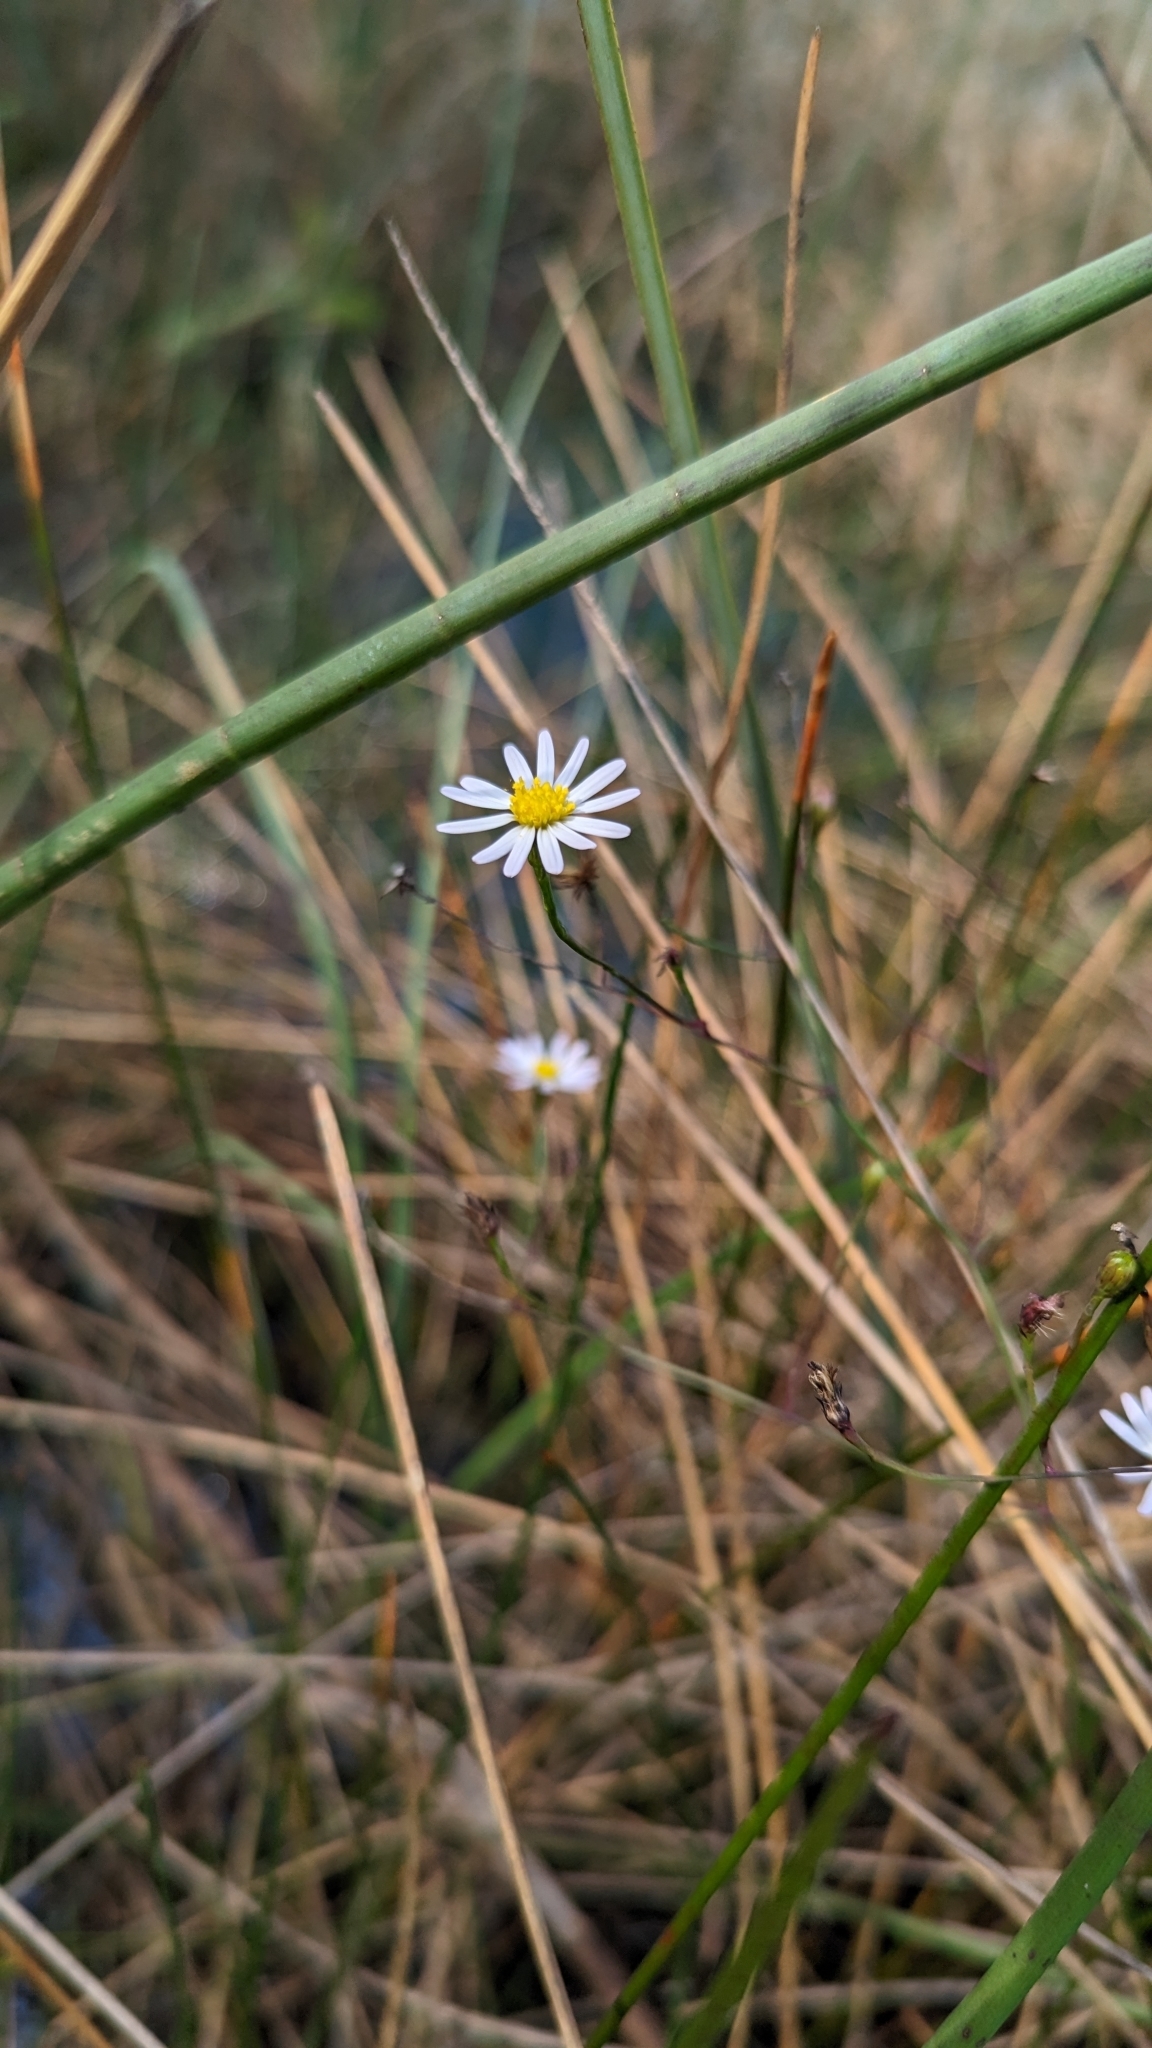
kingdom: Plantae
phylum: Tracheophyta
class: Magnoliopsida
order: Asterales
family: Asteraceae
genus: Symphyotrichum
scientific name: Symphyotrichum tenuifolium
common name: Perennial salt-marsh aster
